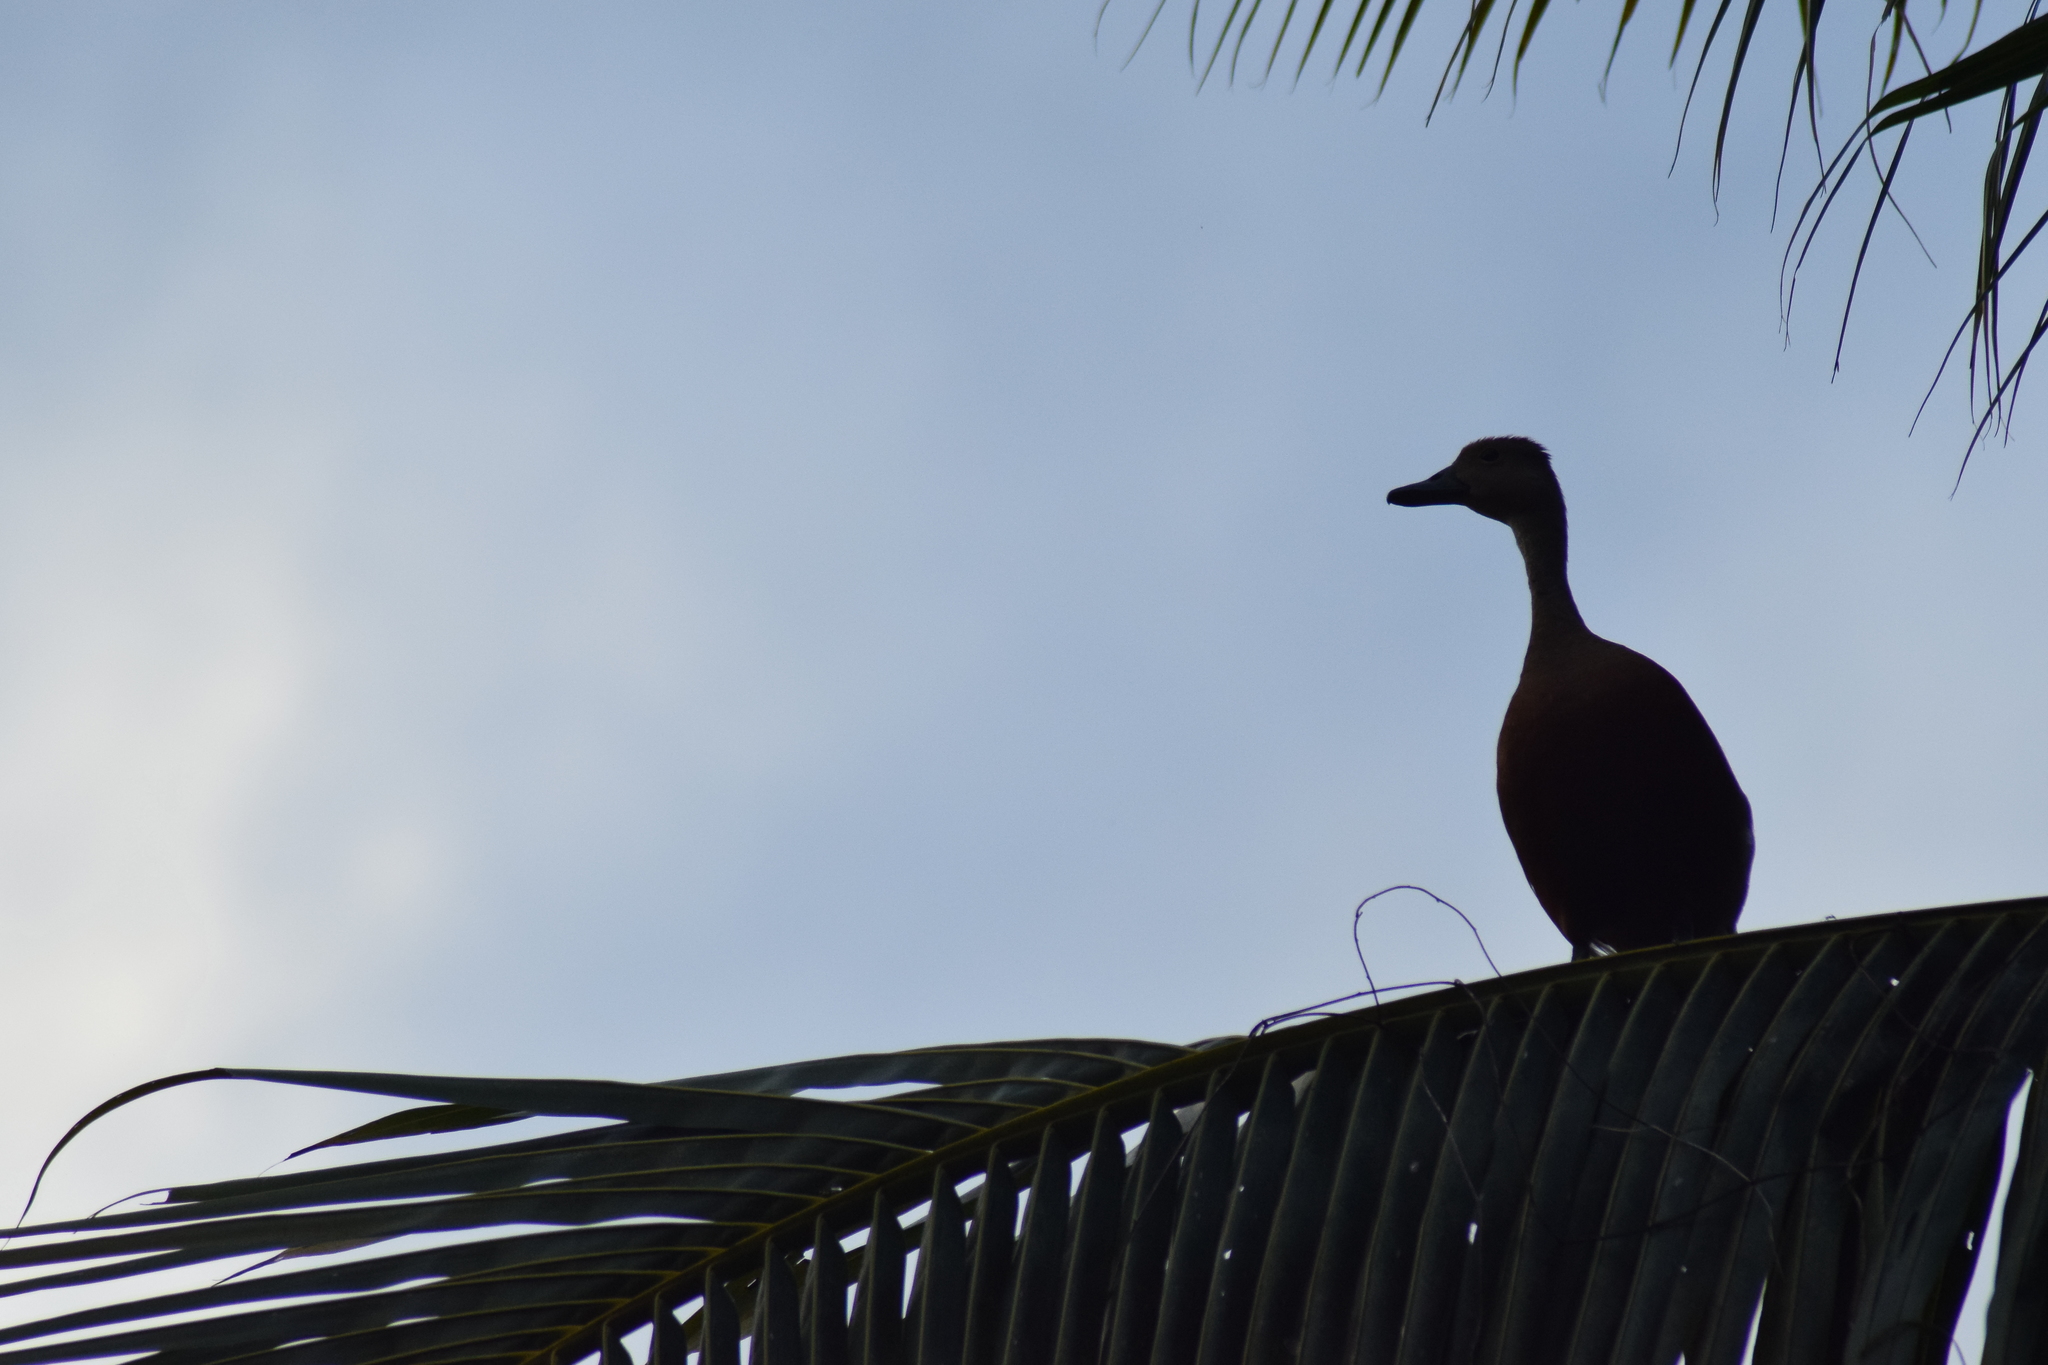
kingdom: Animalia
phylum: Chordata
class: Aves
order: Anseriformes
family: Anatidae
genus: Dendrocygna
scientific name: Dendrocygna javanica
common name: Lesser whistling-duck
